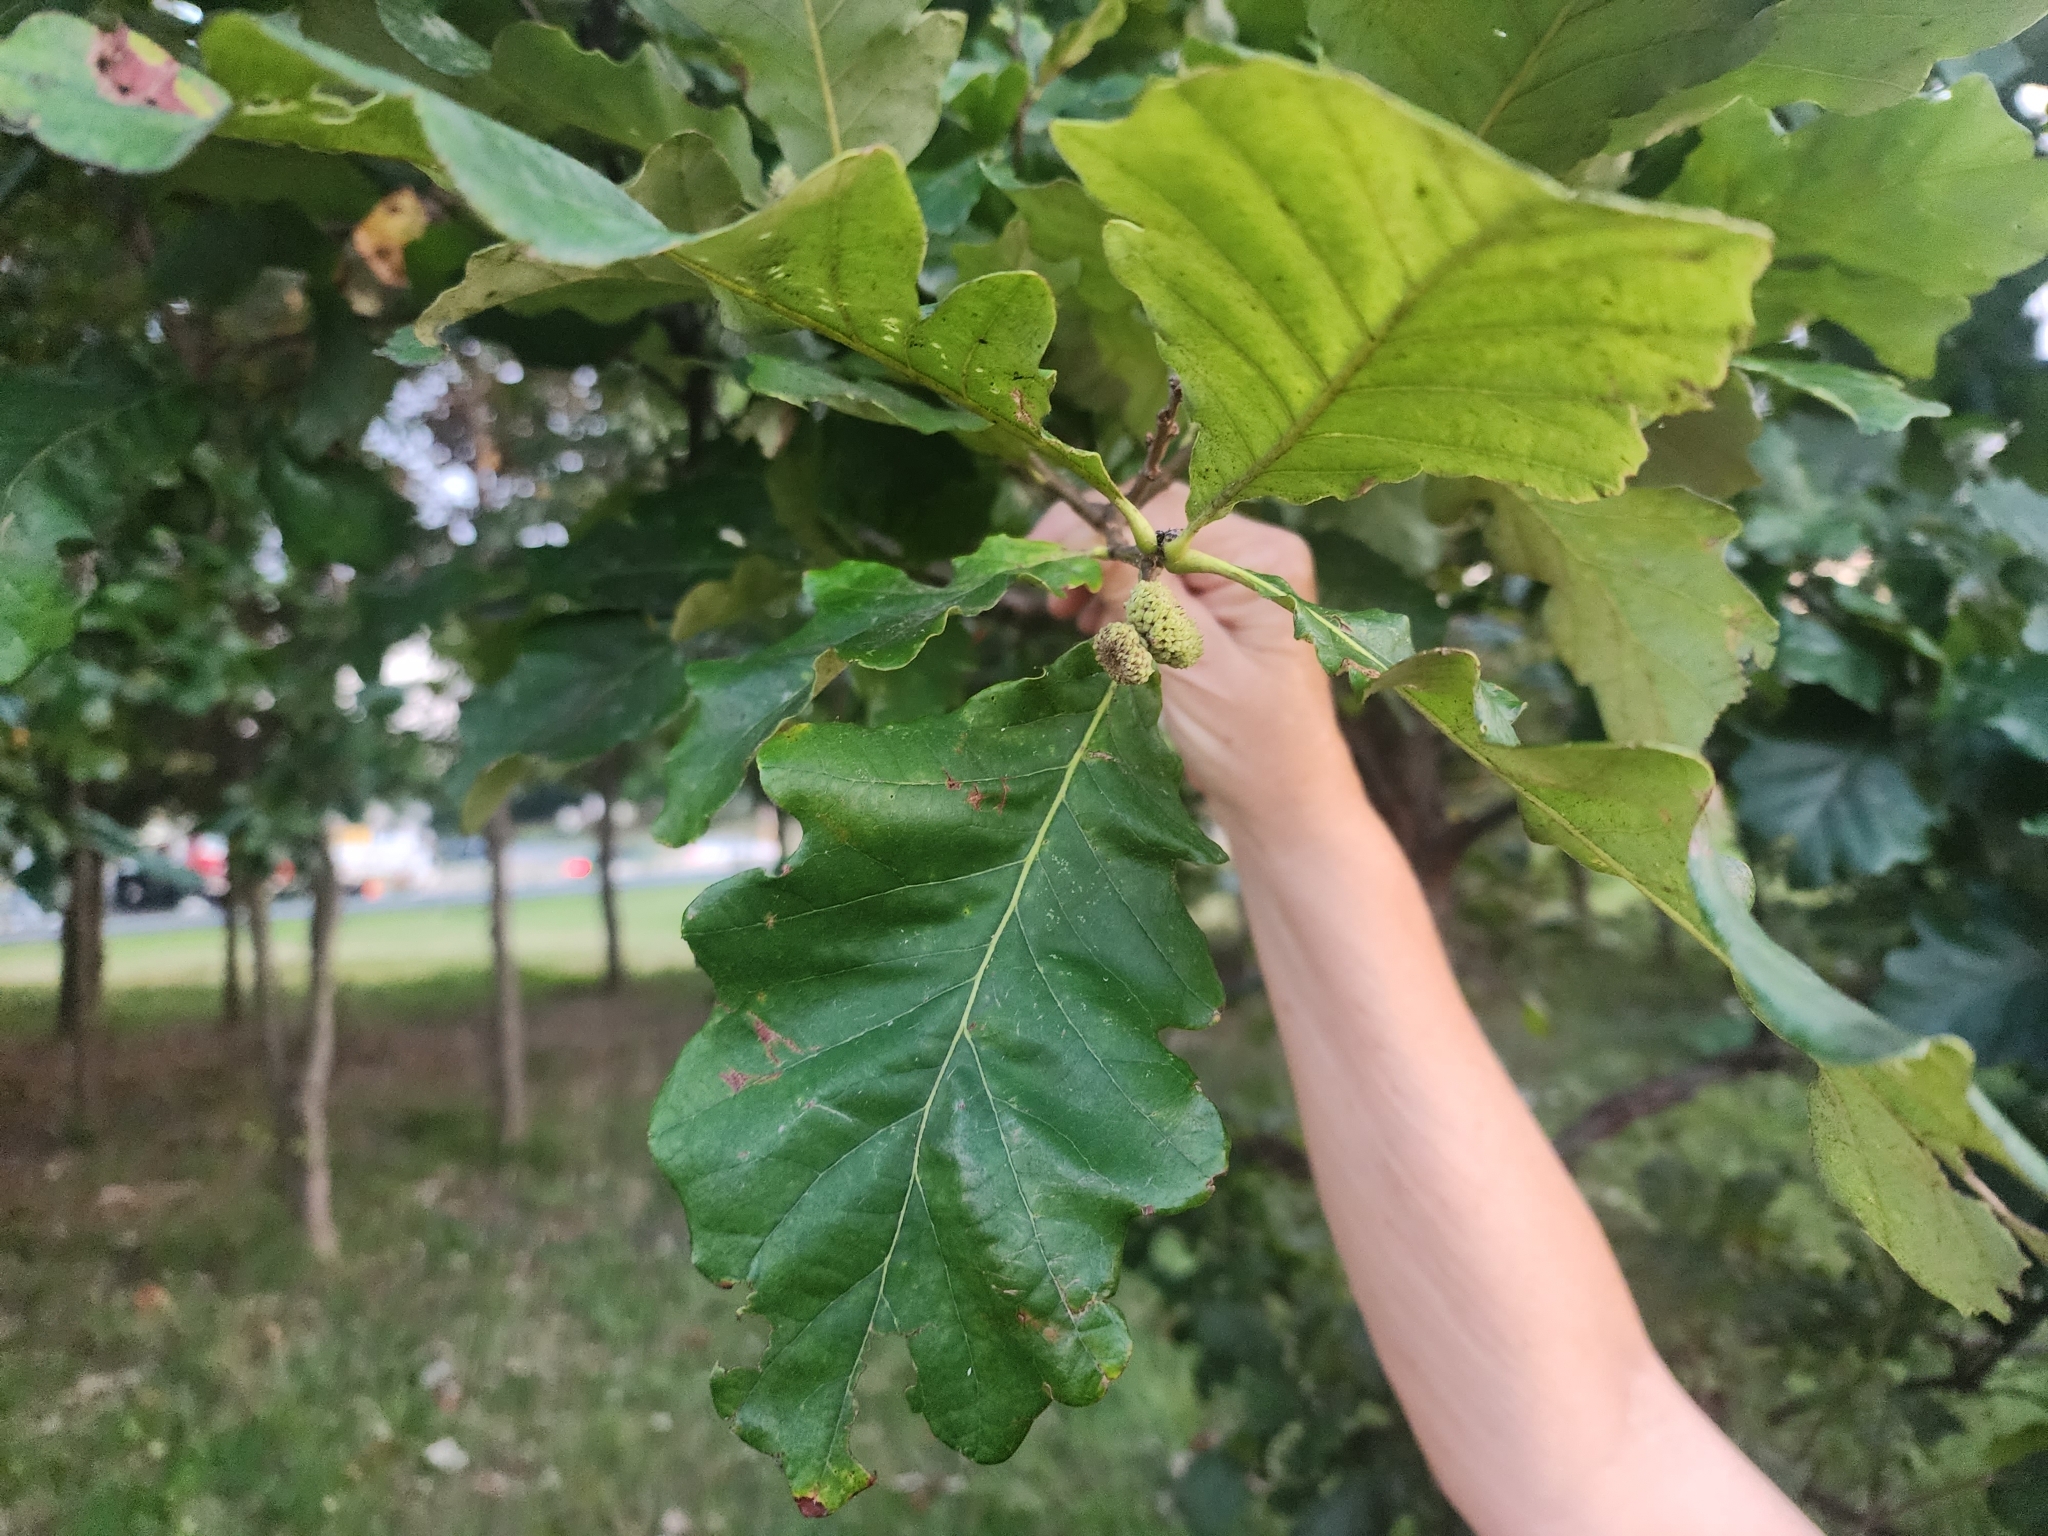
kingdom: Plantae
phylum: Tracheophyta
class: Magnoliopsida
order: Fagales
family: Fagaceae
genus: Quercus
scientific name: Quercus bicolor
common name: Swamp white oak
